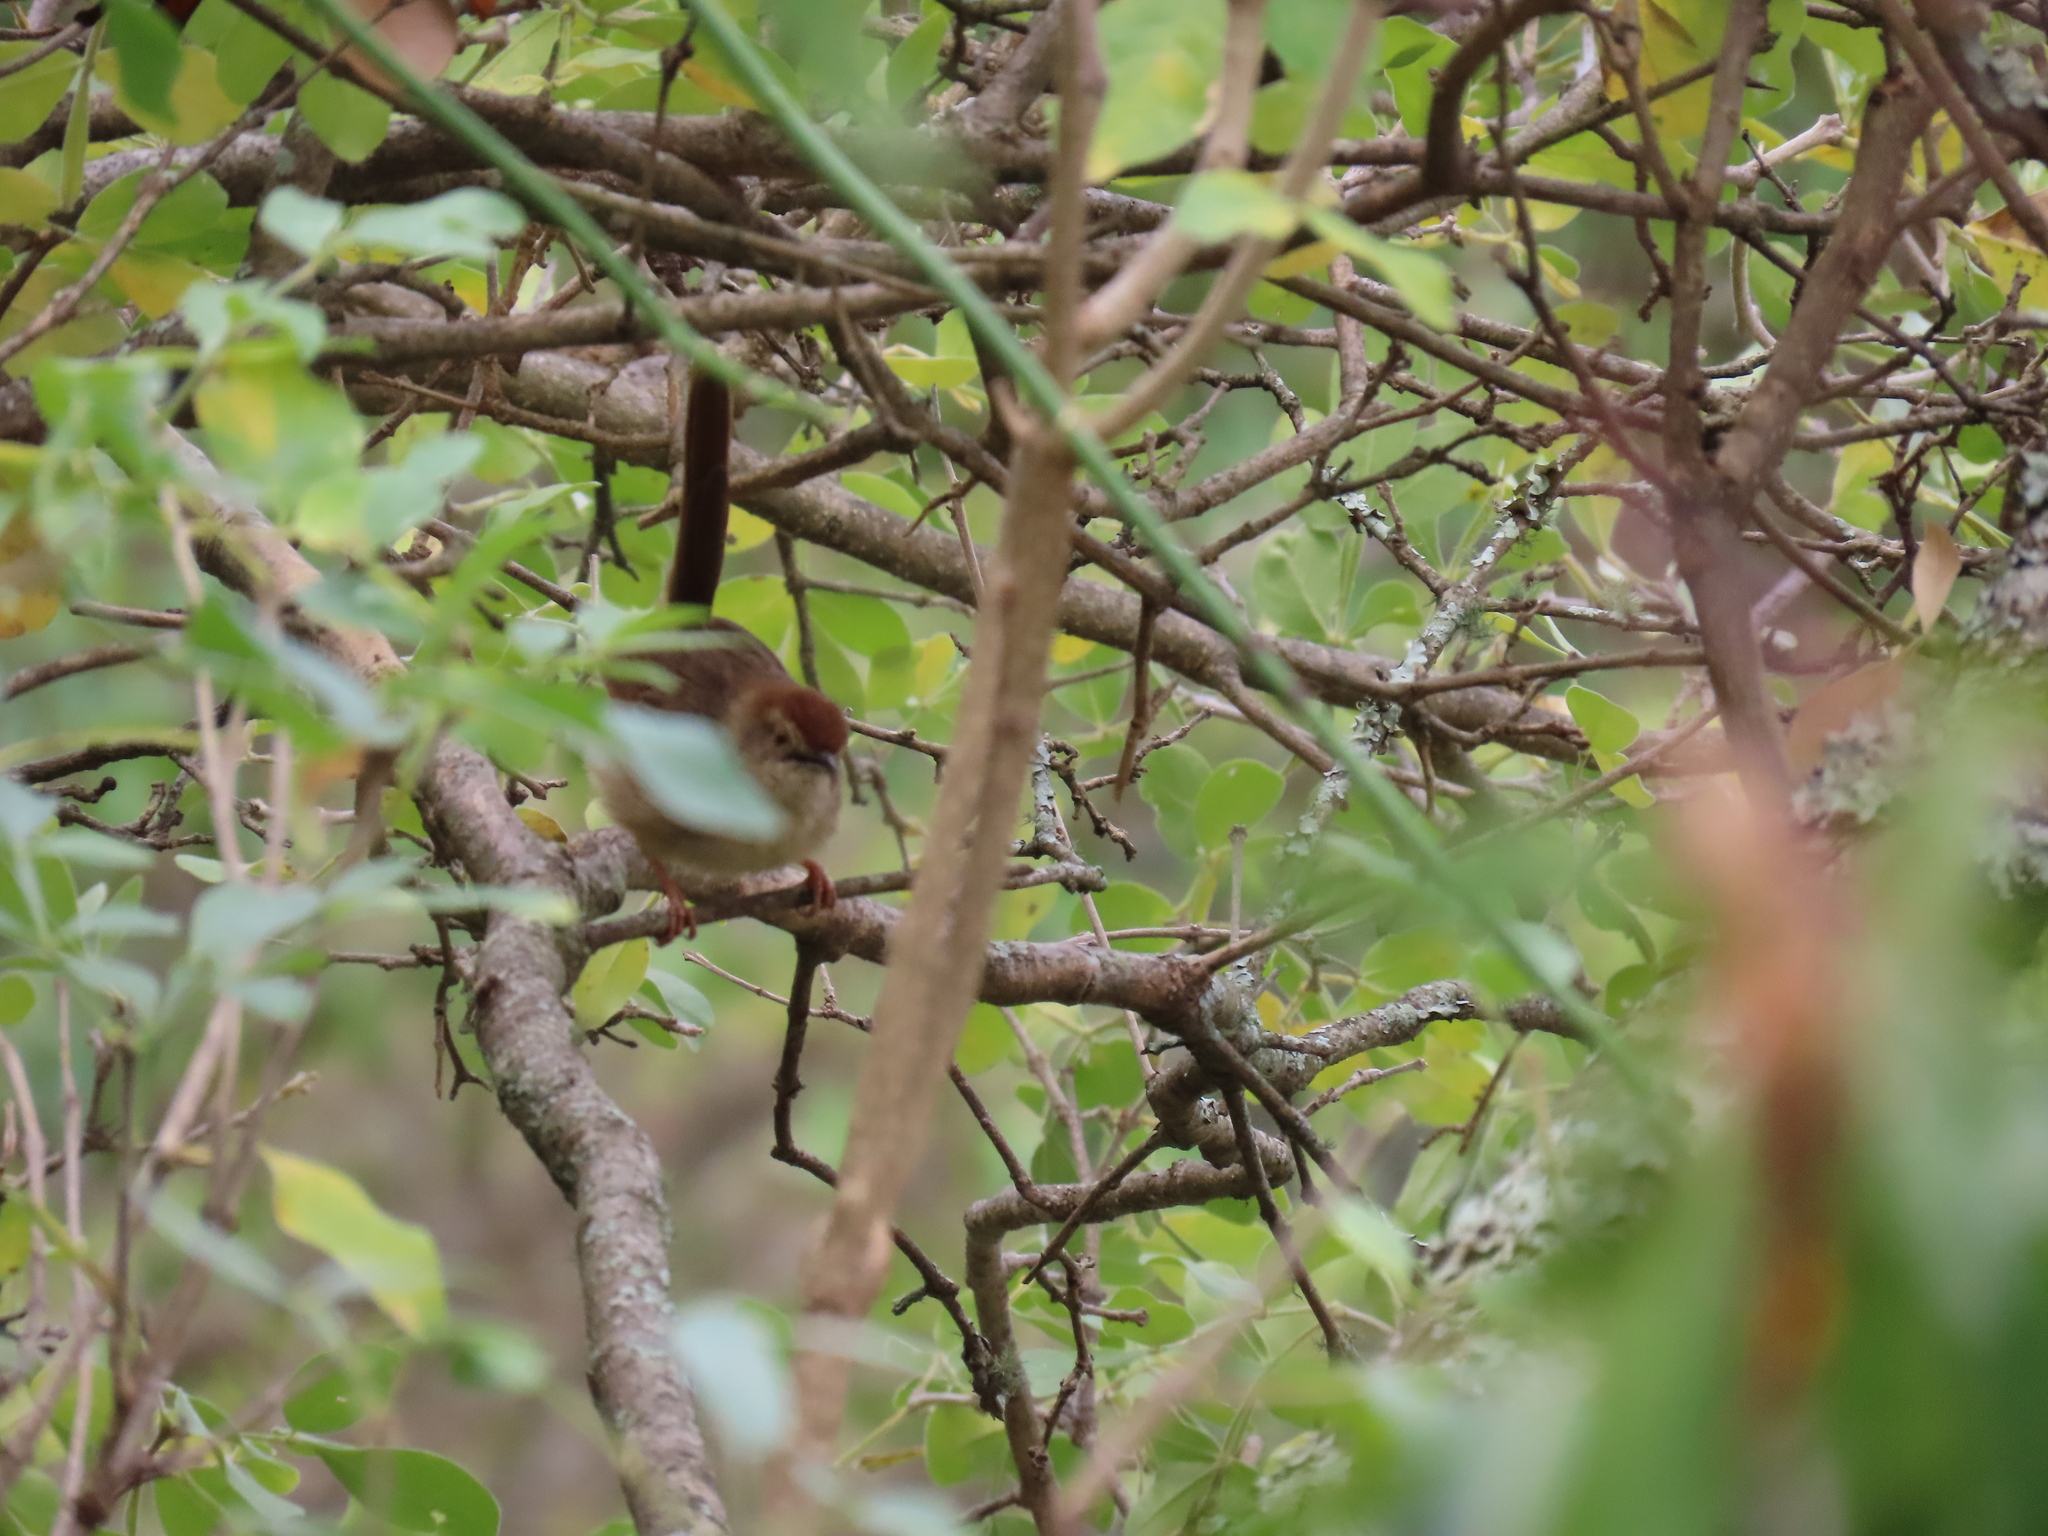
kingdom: Animalia
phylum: Chordata
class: Aves
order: Passeriformes
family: Cisticolidae
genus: Cisticola
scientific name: Cisticola aberrans
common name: Lazy cisticola
